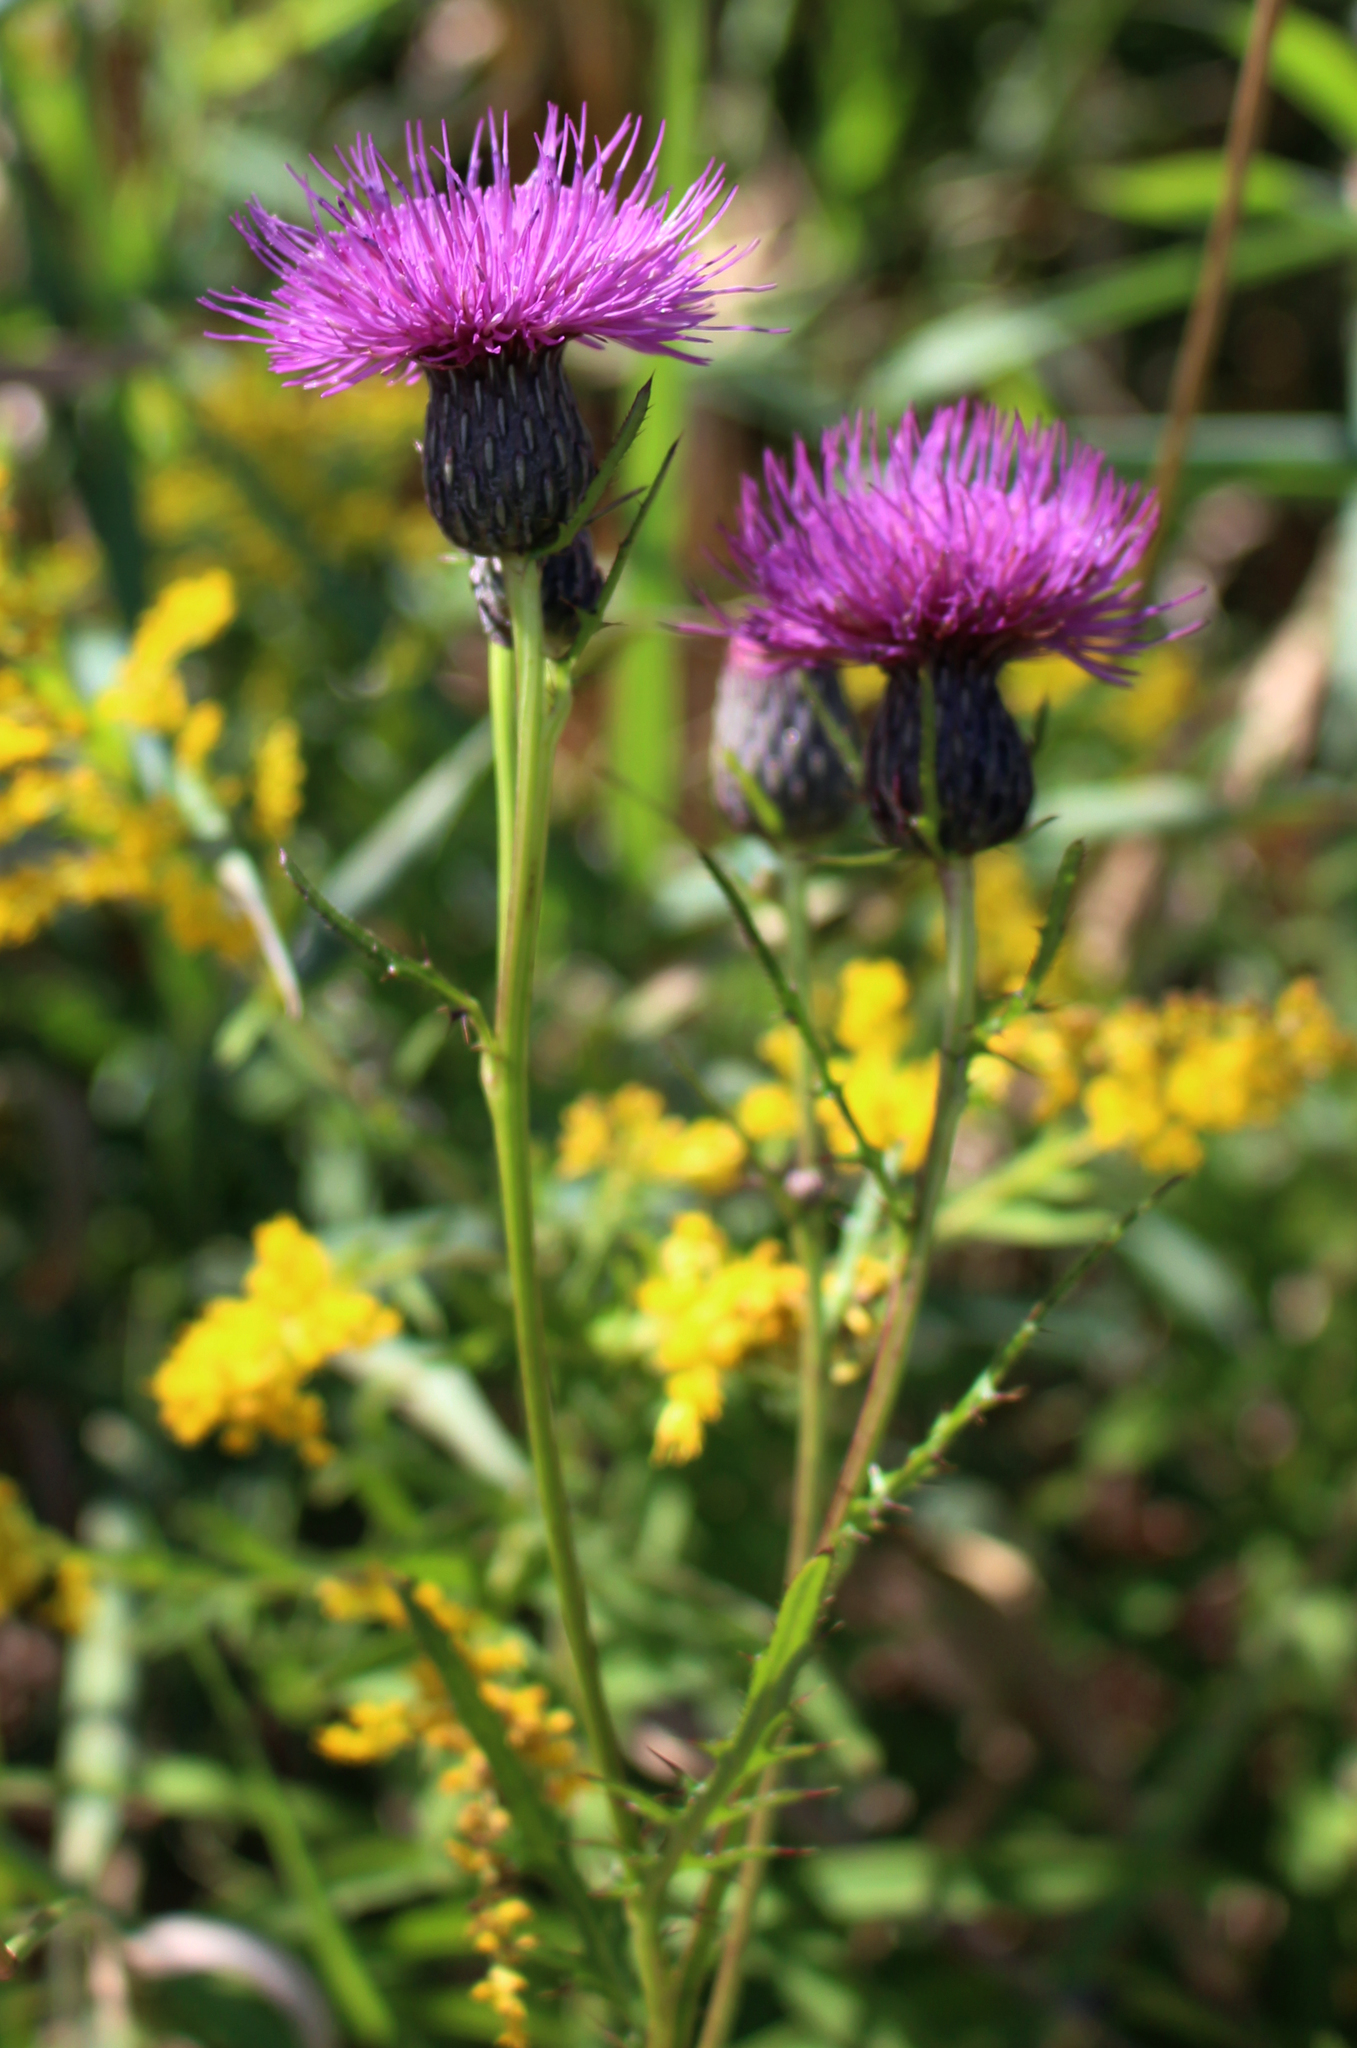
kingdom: Plantae
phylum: Tracheophyta
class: Magnoliopsida
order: Asterales
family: Asteraceae
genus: Cirsium
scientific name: Cirsium muticum
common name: Dunce-nettle
